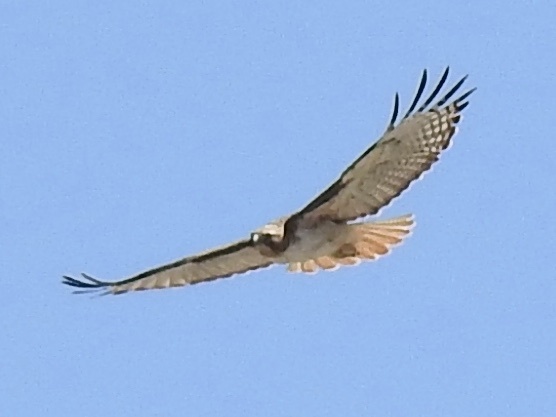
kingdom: Animalia
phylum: Chordata
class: Aves
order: Accipitriformes
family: Accipitridae
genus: Buteo
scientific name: Buteo jamaicensis
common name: Red-tailed hawk
